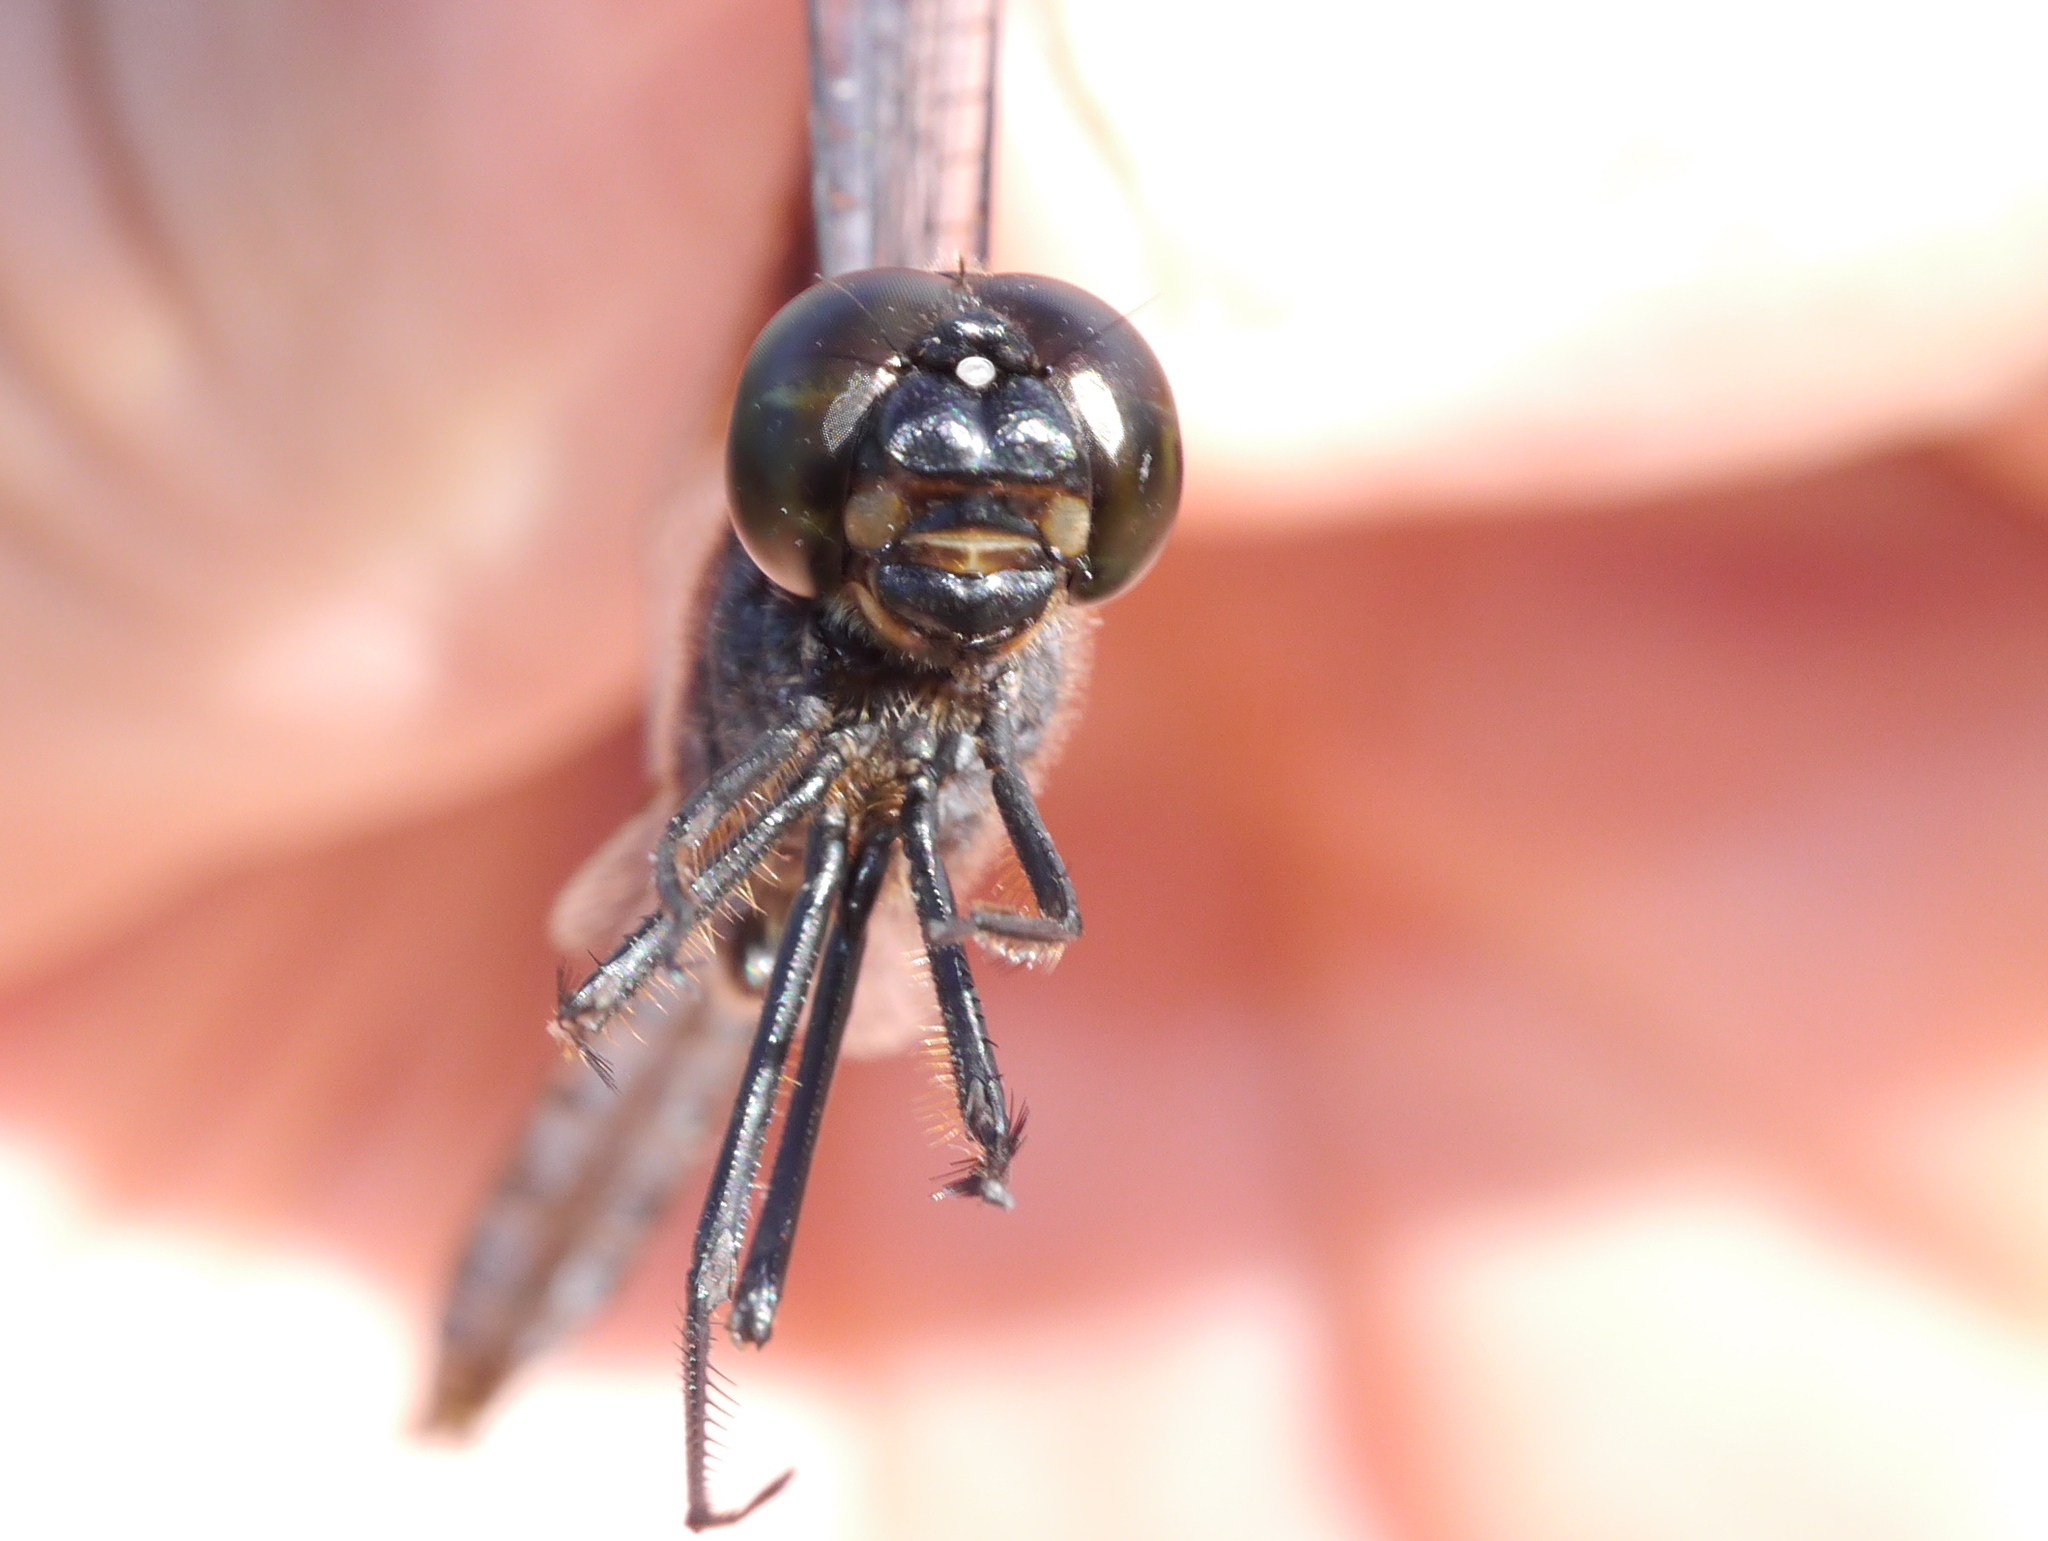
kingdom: Animalia
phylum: Arthropoda
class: Insecta
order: Odonata
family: Libellulidae
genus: Brachymesia
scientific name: Brachymesia gravida
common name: Four-spotted pennant
